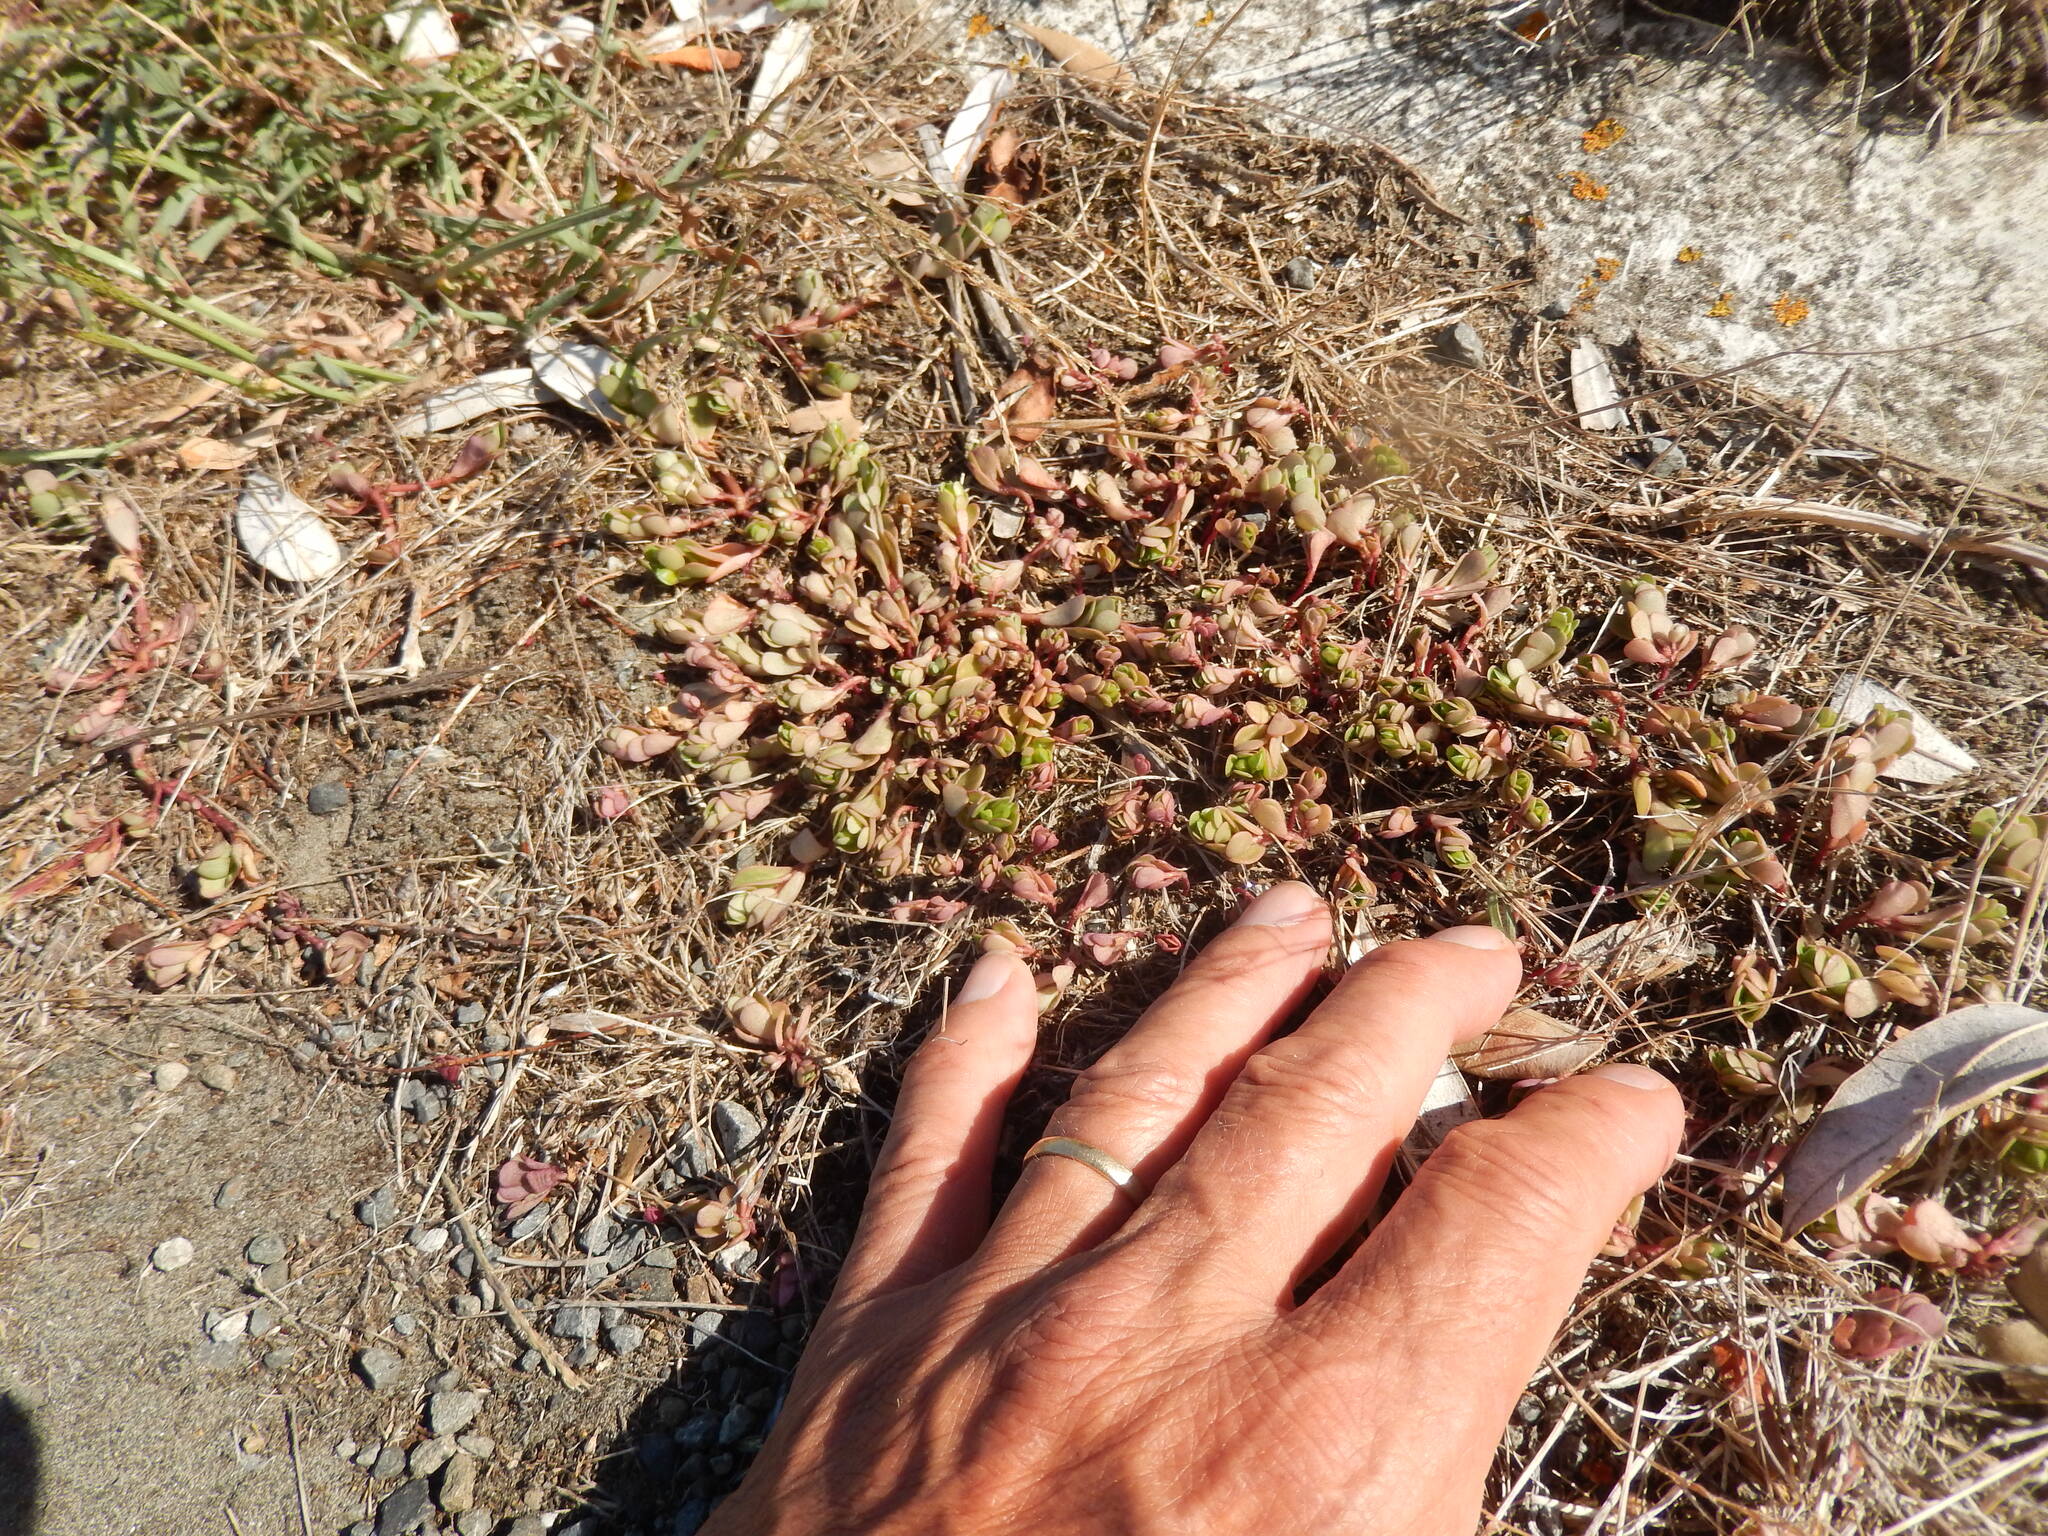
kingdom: Plantae
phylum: Tracheophyta
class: Magnoliopsida
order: Caryophyllales
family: Portulacaceae
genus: Portulaca
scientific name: Portulaca oleracea
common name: Common purslane
